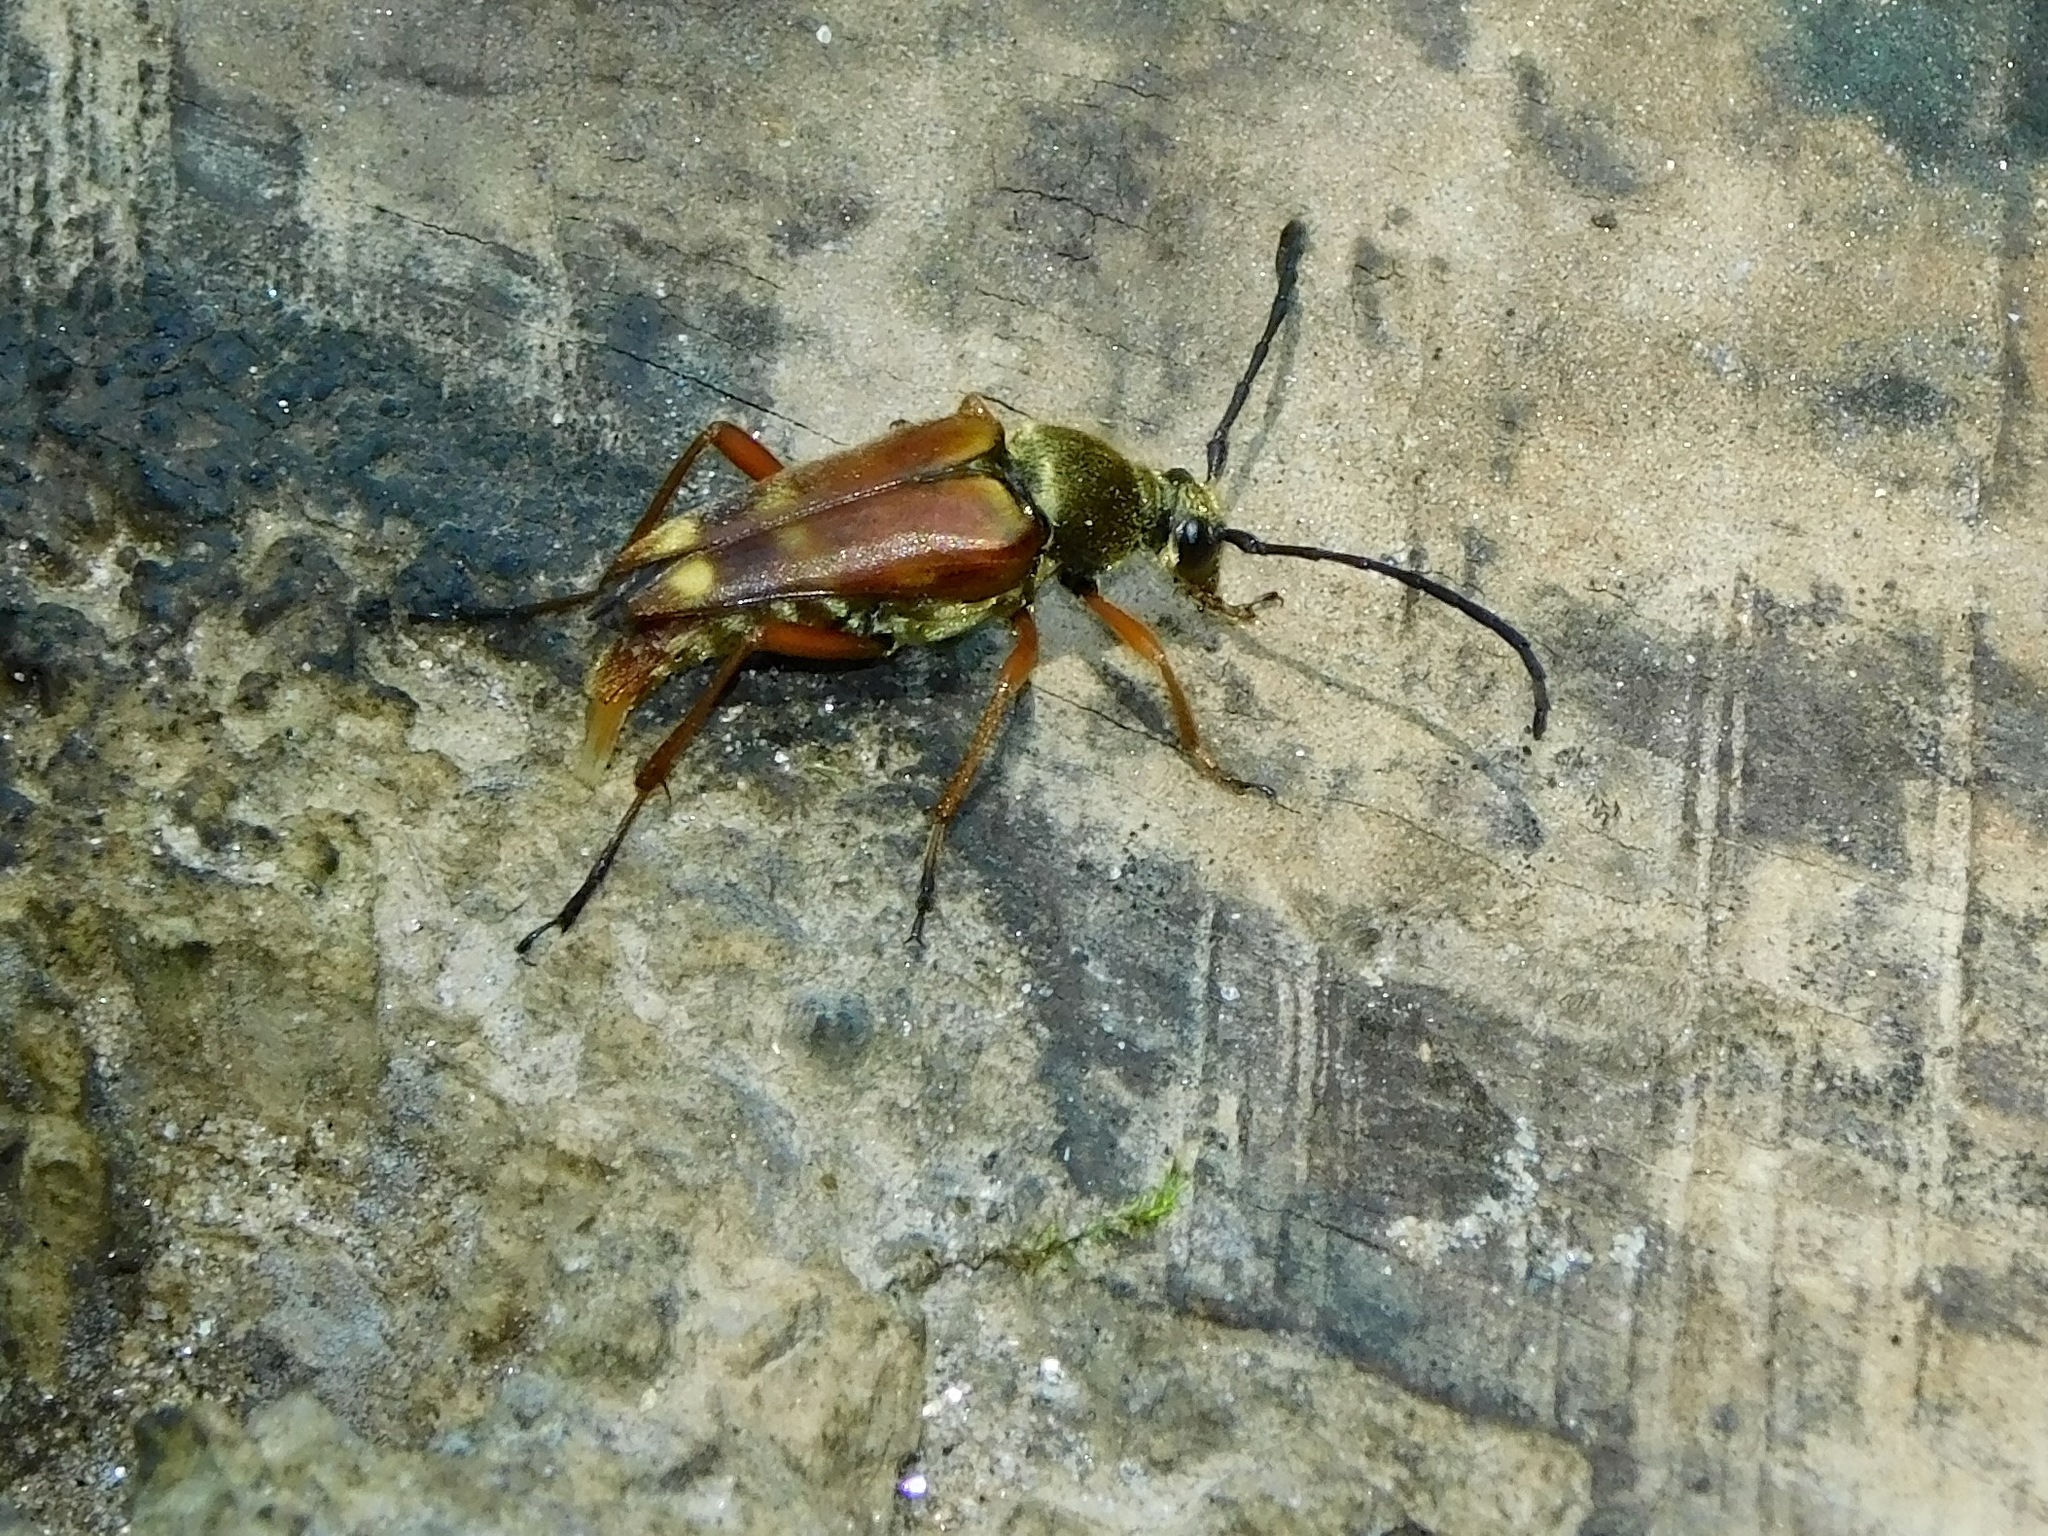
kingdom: Animalia
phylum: Arthropoda
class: Insecta
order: Coleoptera
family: Cerambycidae
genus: Typocerus
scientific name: Typocerus acuticauda
